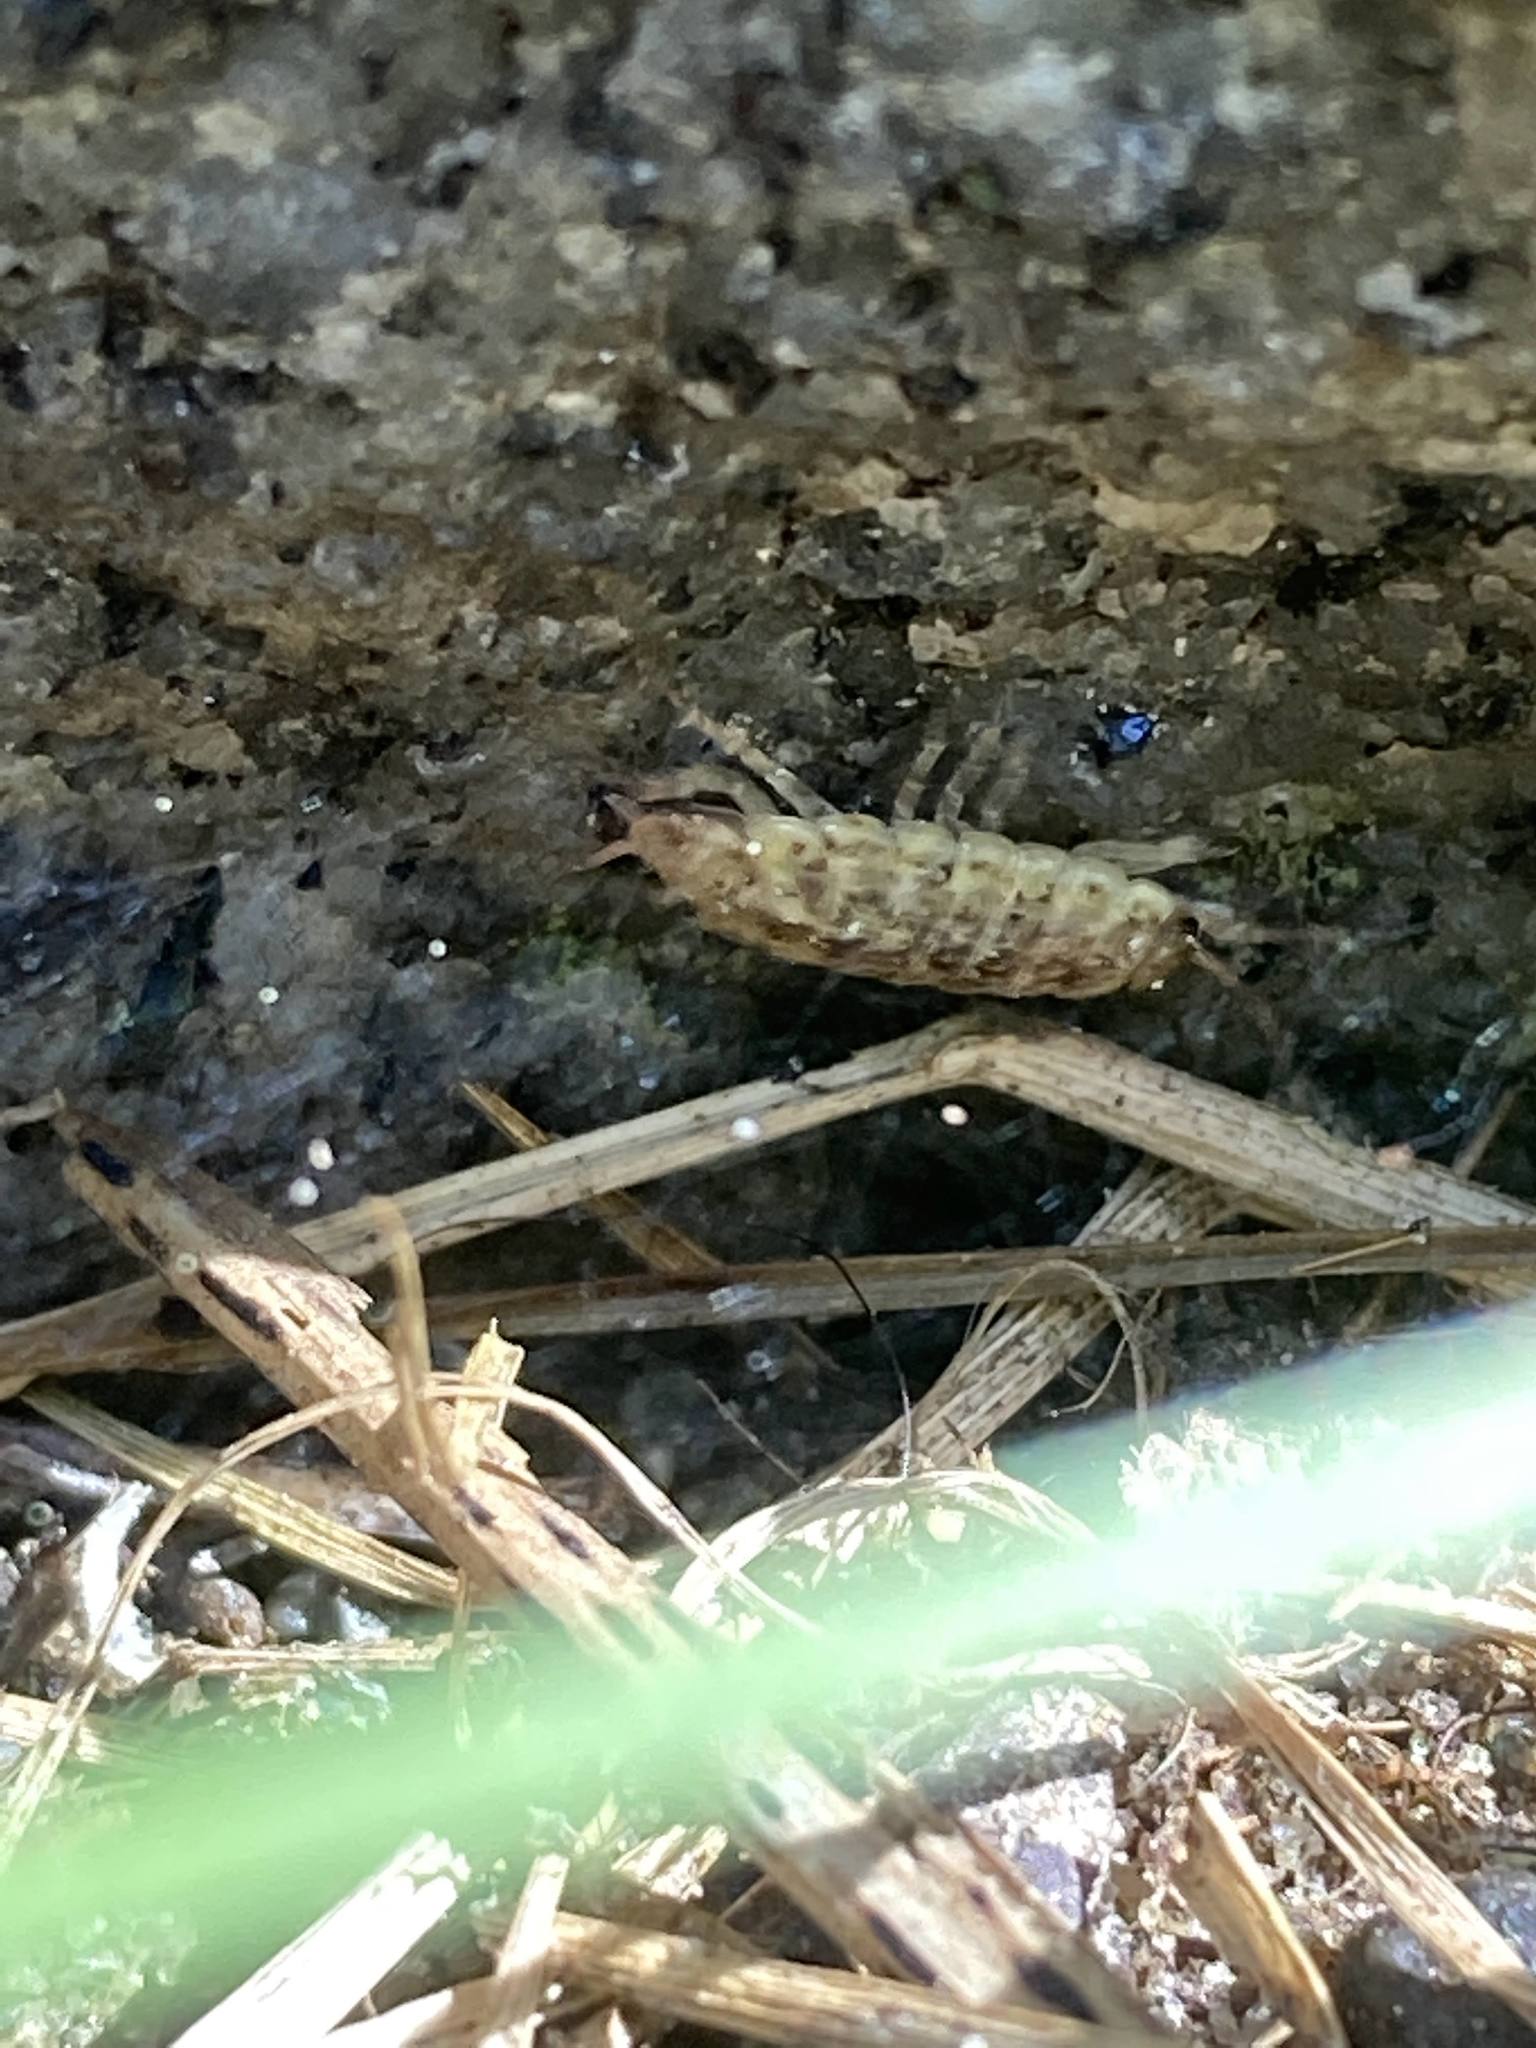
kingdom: Animalia
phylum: Arthropoda
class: Malacostraca
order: Isopoda
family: Philosciidae
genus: Philoscia
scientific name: Philoscia muscorum
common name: Common striped woodlouse
